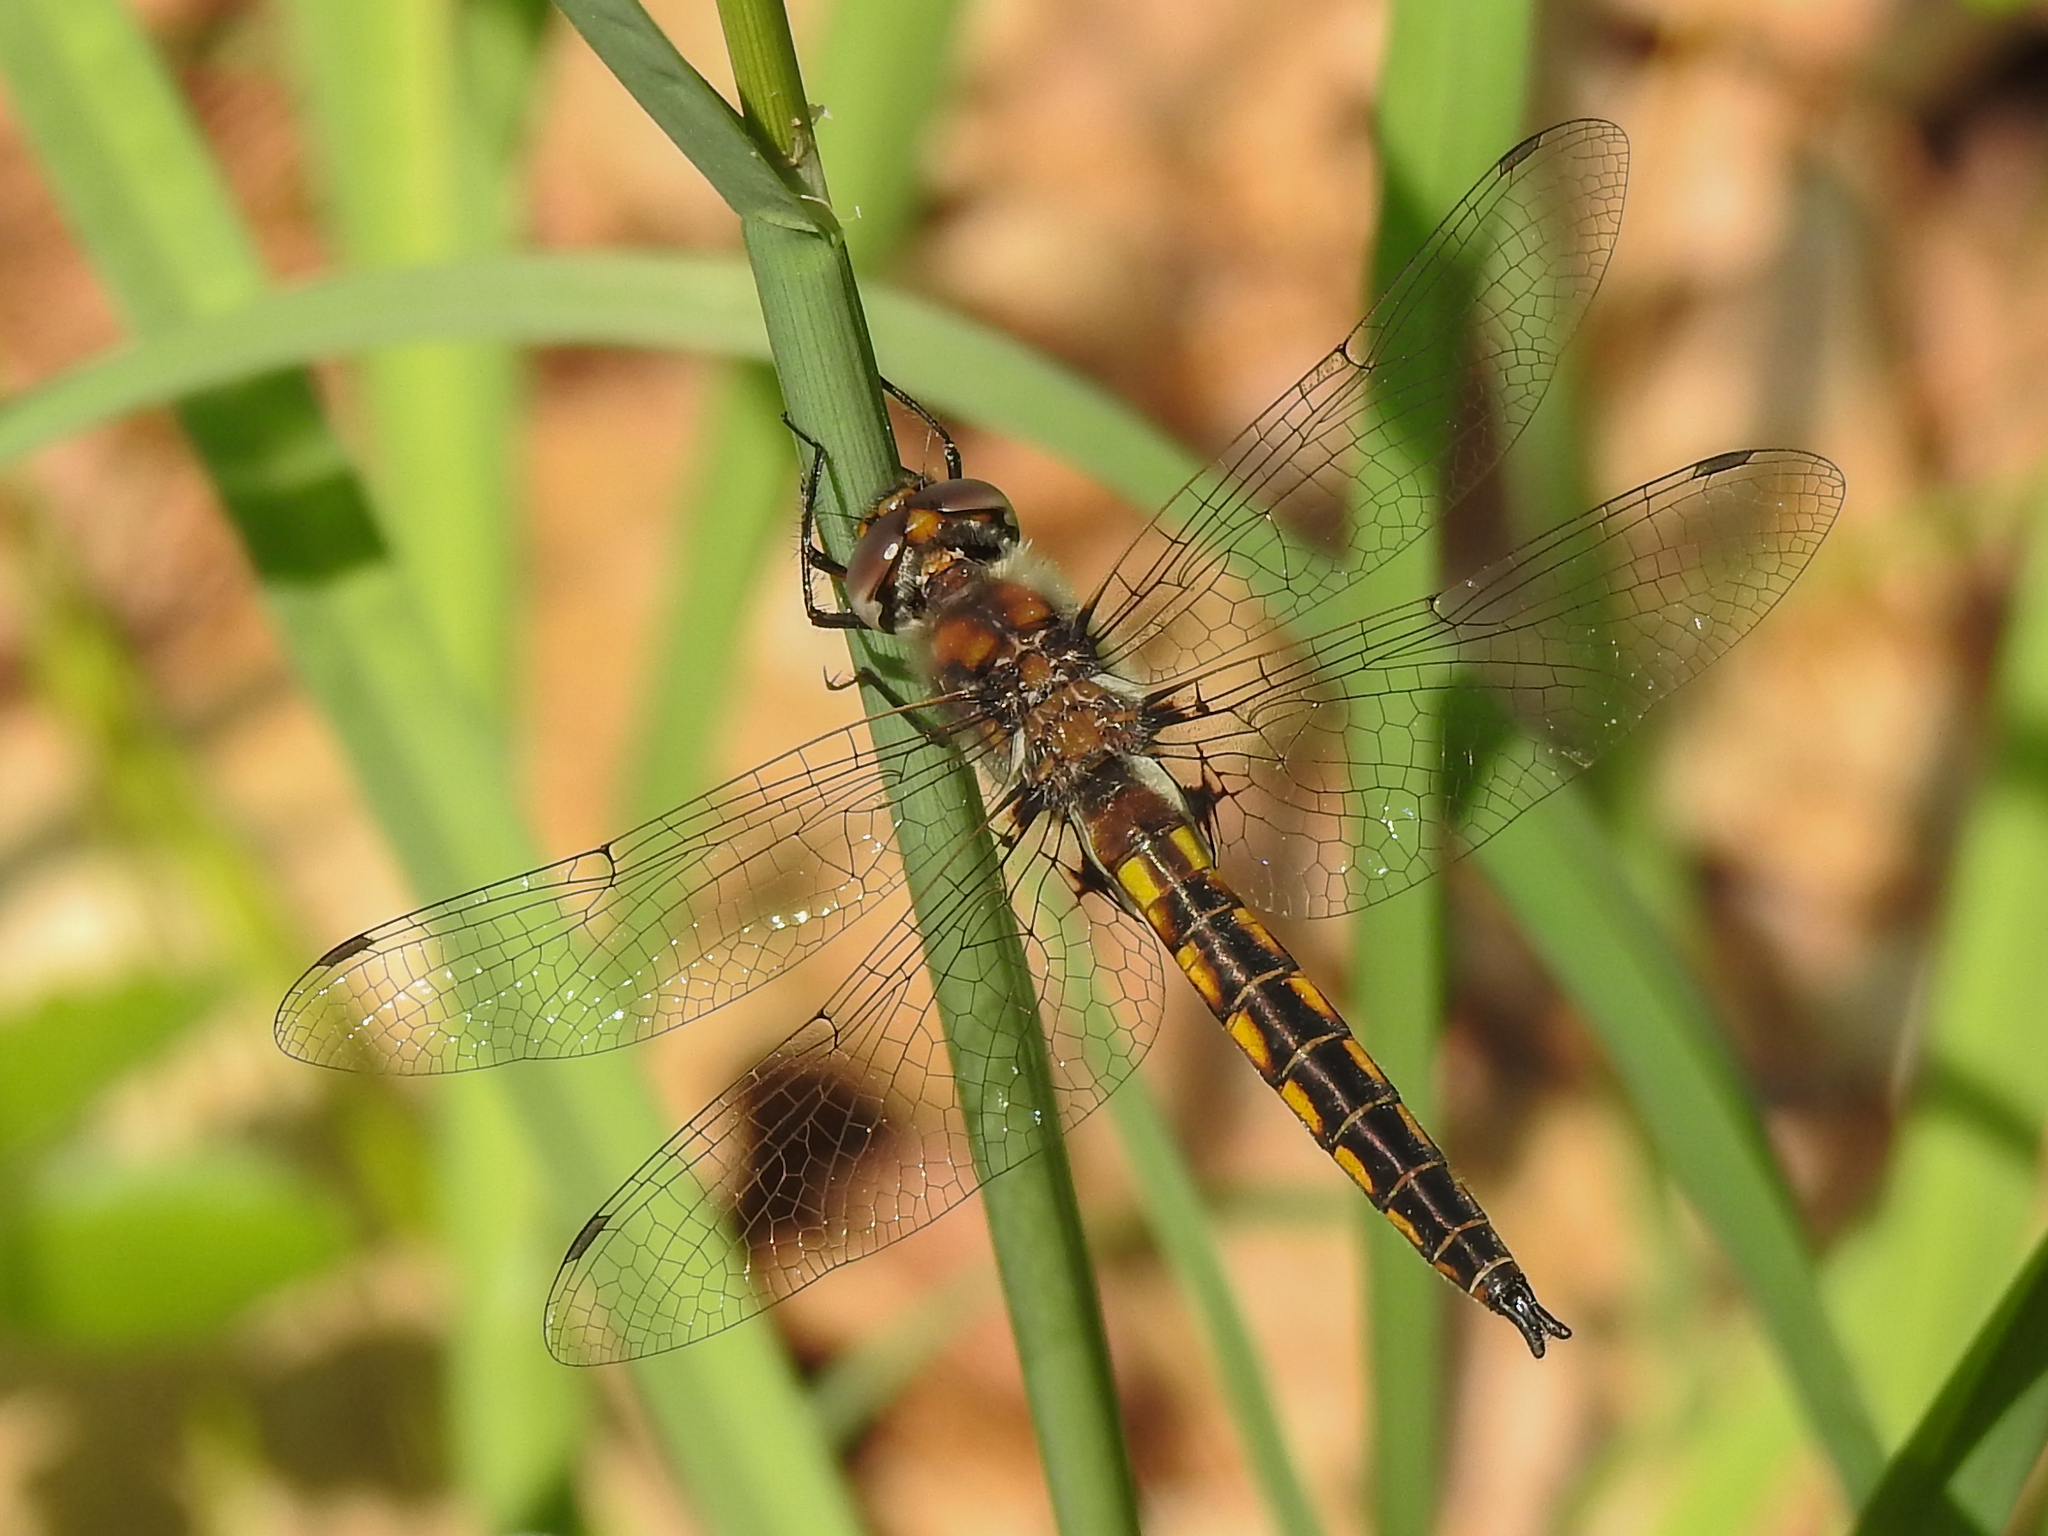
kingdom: Animalia
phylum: Arthropoda
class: Insecta
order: Odonata
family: Corduliidae
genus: Epitheca
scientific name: Epitheca cynosura
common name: Common baskettail
